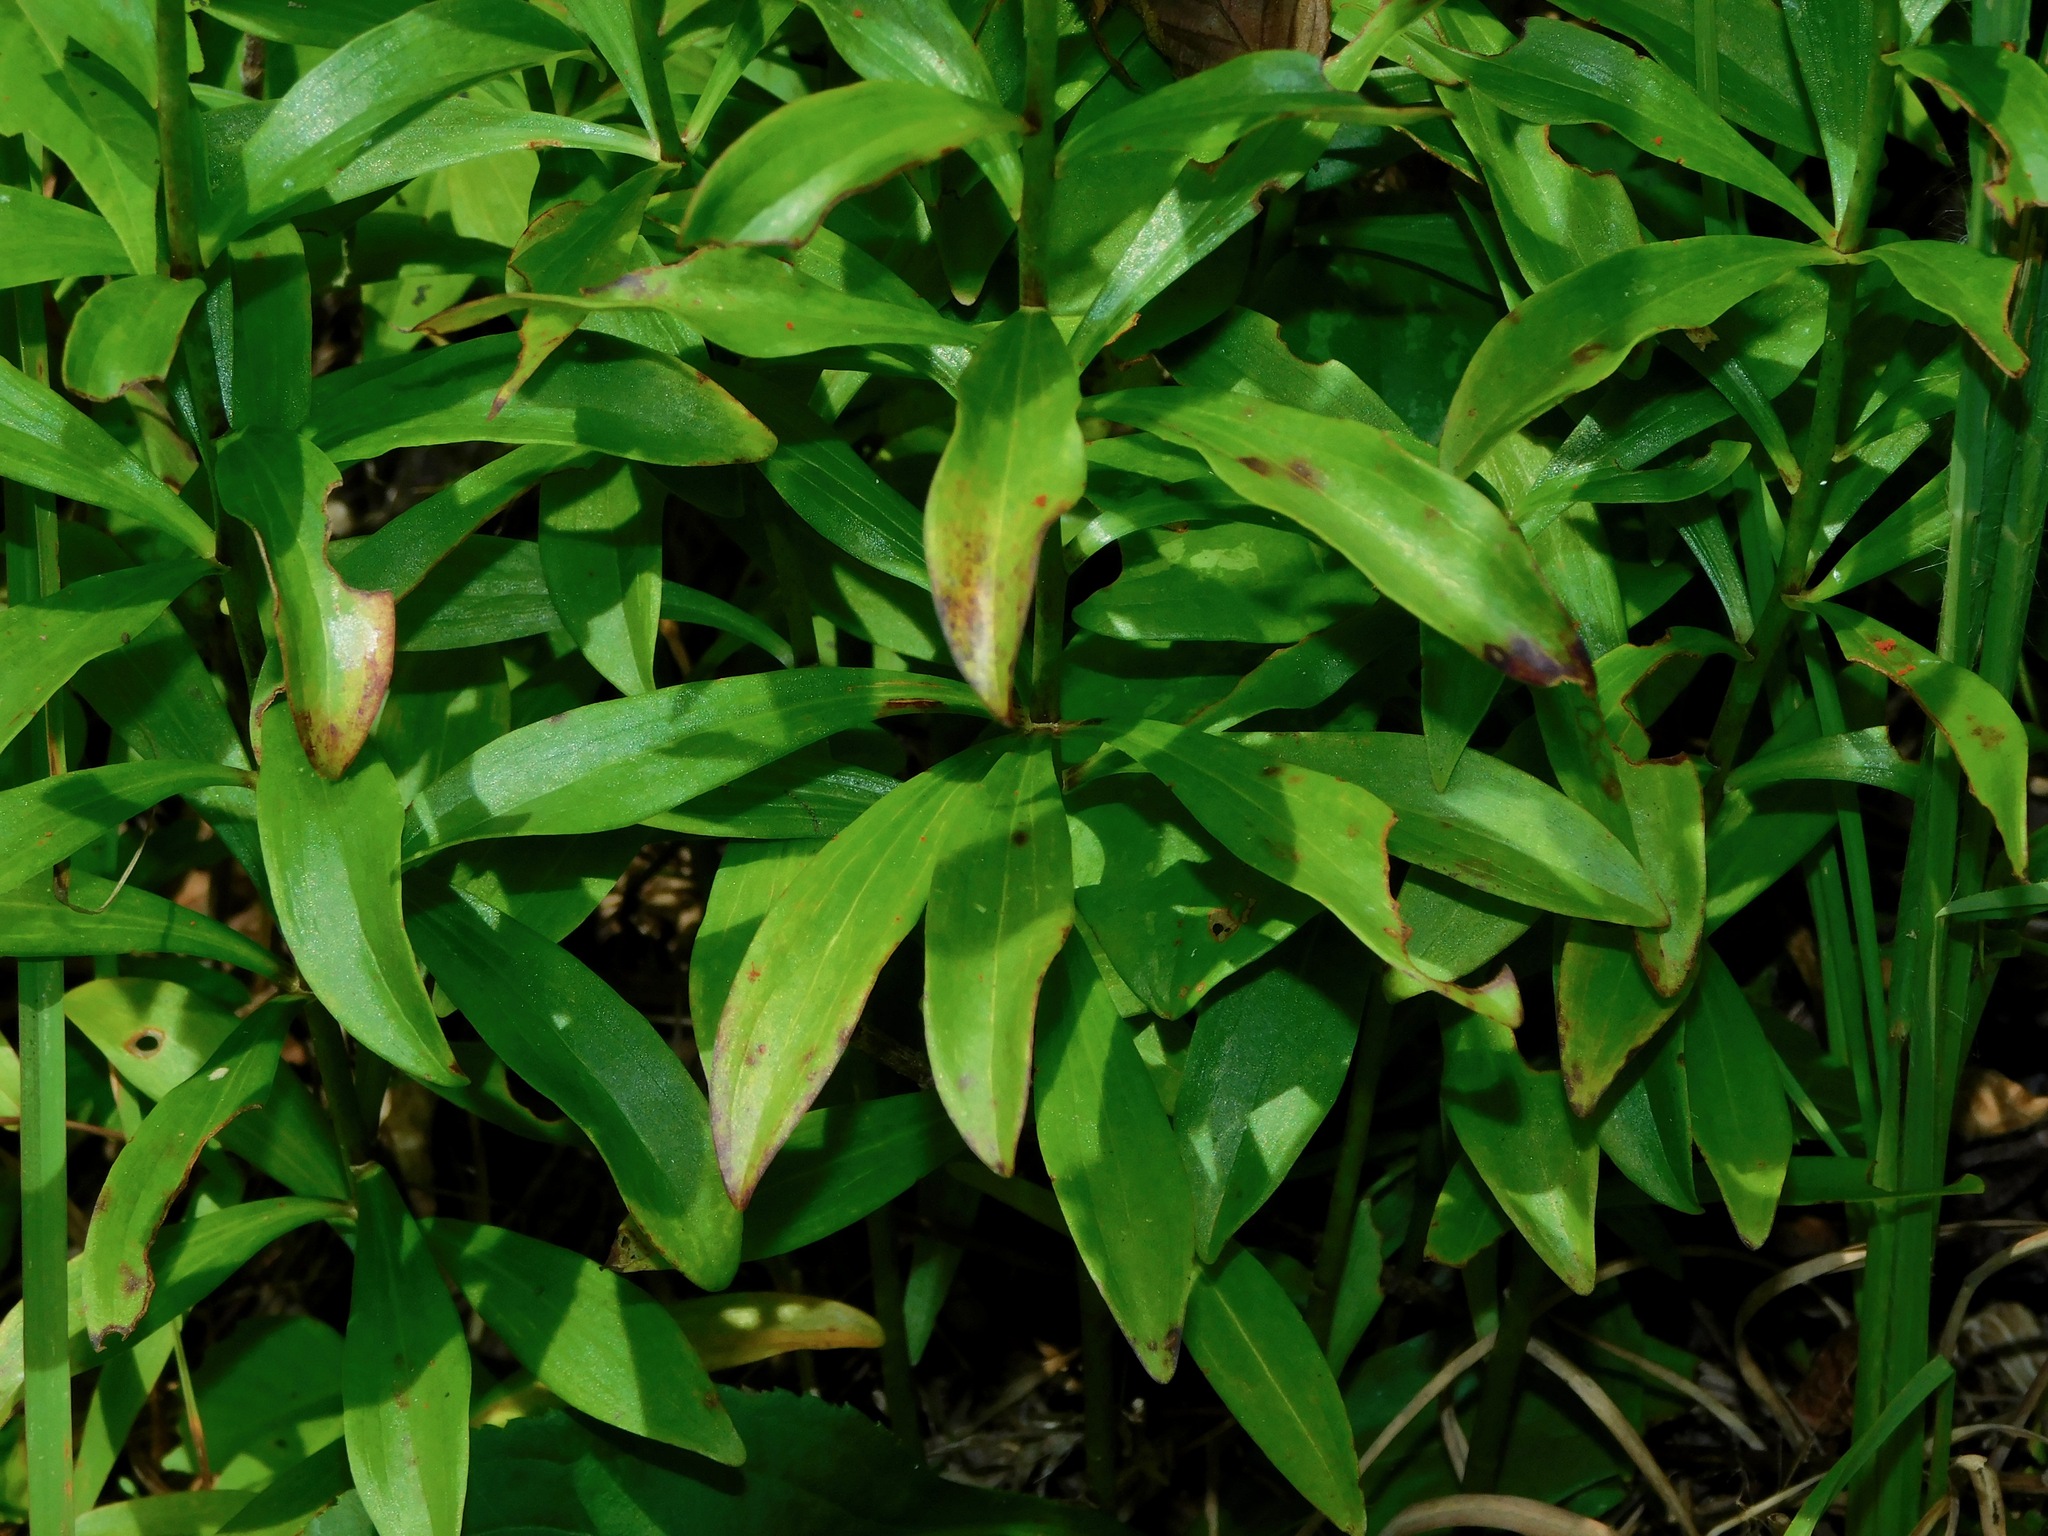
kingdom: Plantae
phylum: Tracheophyta
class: Liliopsida
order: Liliales
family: Liliaceae
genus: Lilium
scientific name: Lilium michauxii
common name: Carolina lily
